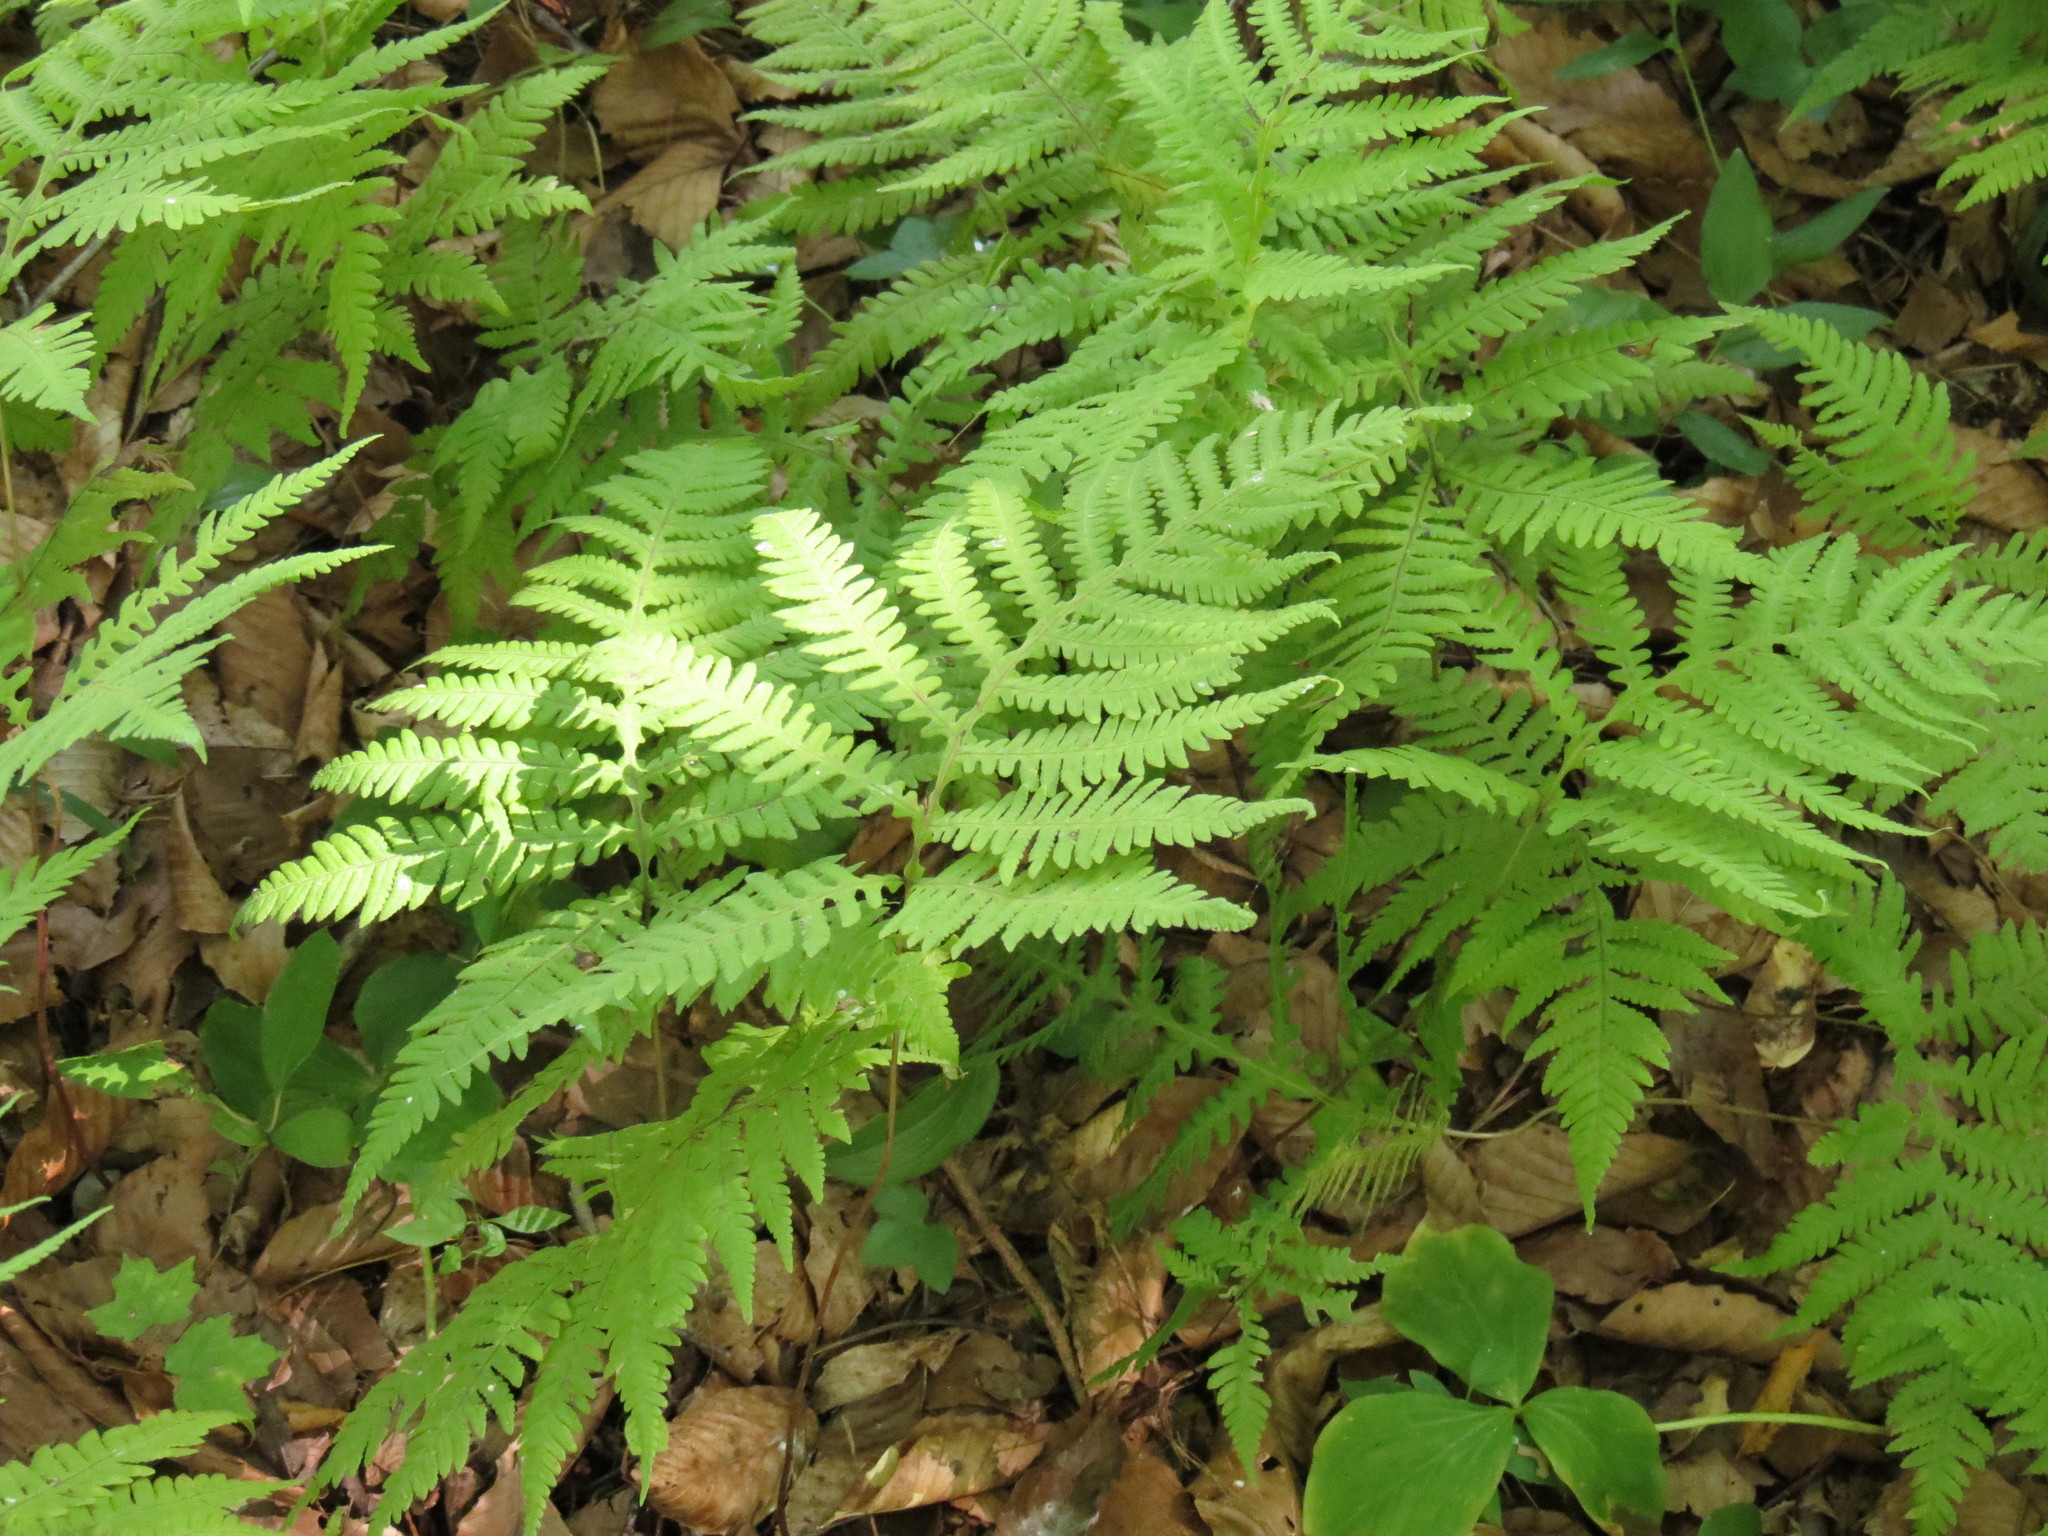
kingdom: Plantae
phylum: Tracheophyta
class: Polypodiopsida
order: Polypodiales
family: Thelypteridaceae
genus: Phegopteris
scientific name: Phegopteris hexagonoptera
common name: Broad beech fern
